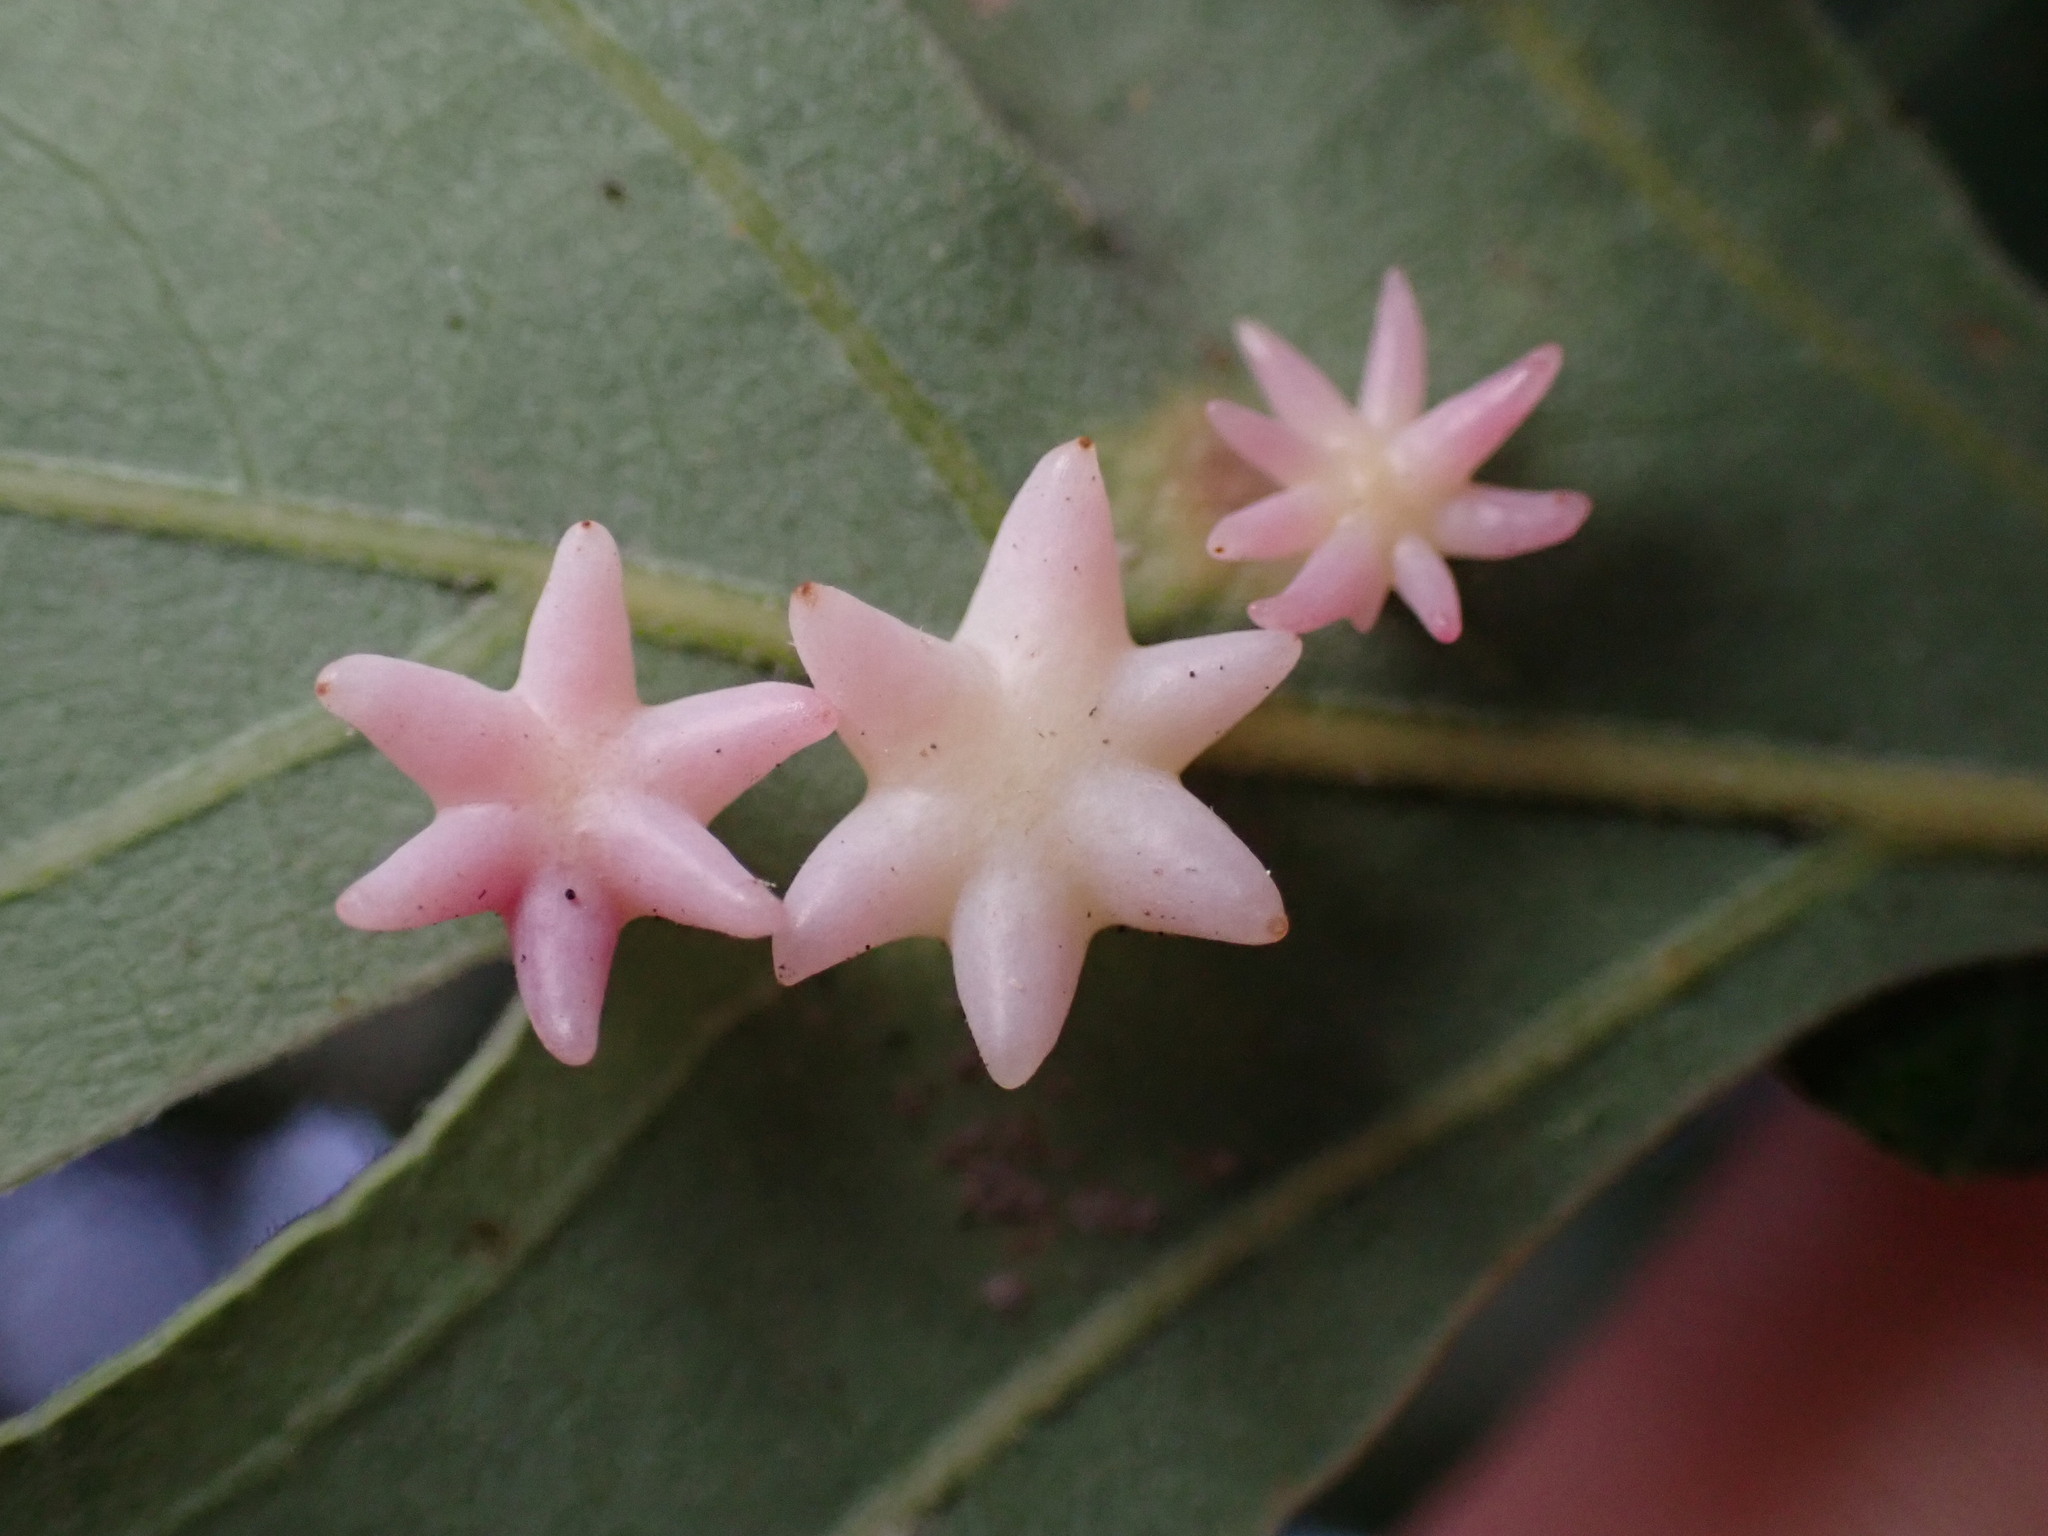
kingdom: Animalia
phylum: Arthropoda
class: Insecta
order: Hymenoptera
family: Cynipidae
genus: Cynips
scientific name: Cynips douglasi
